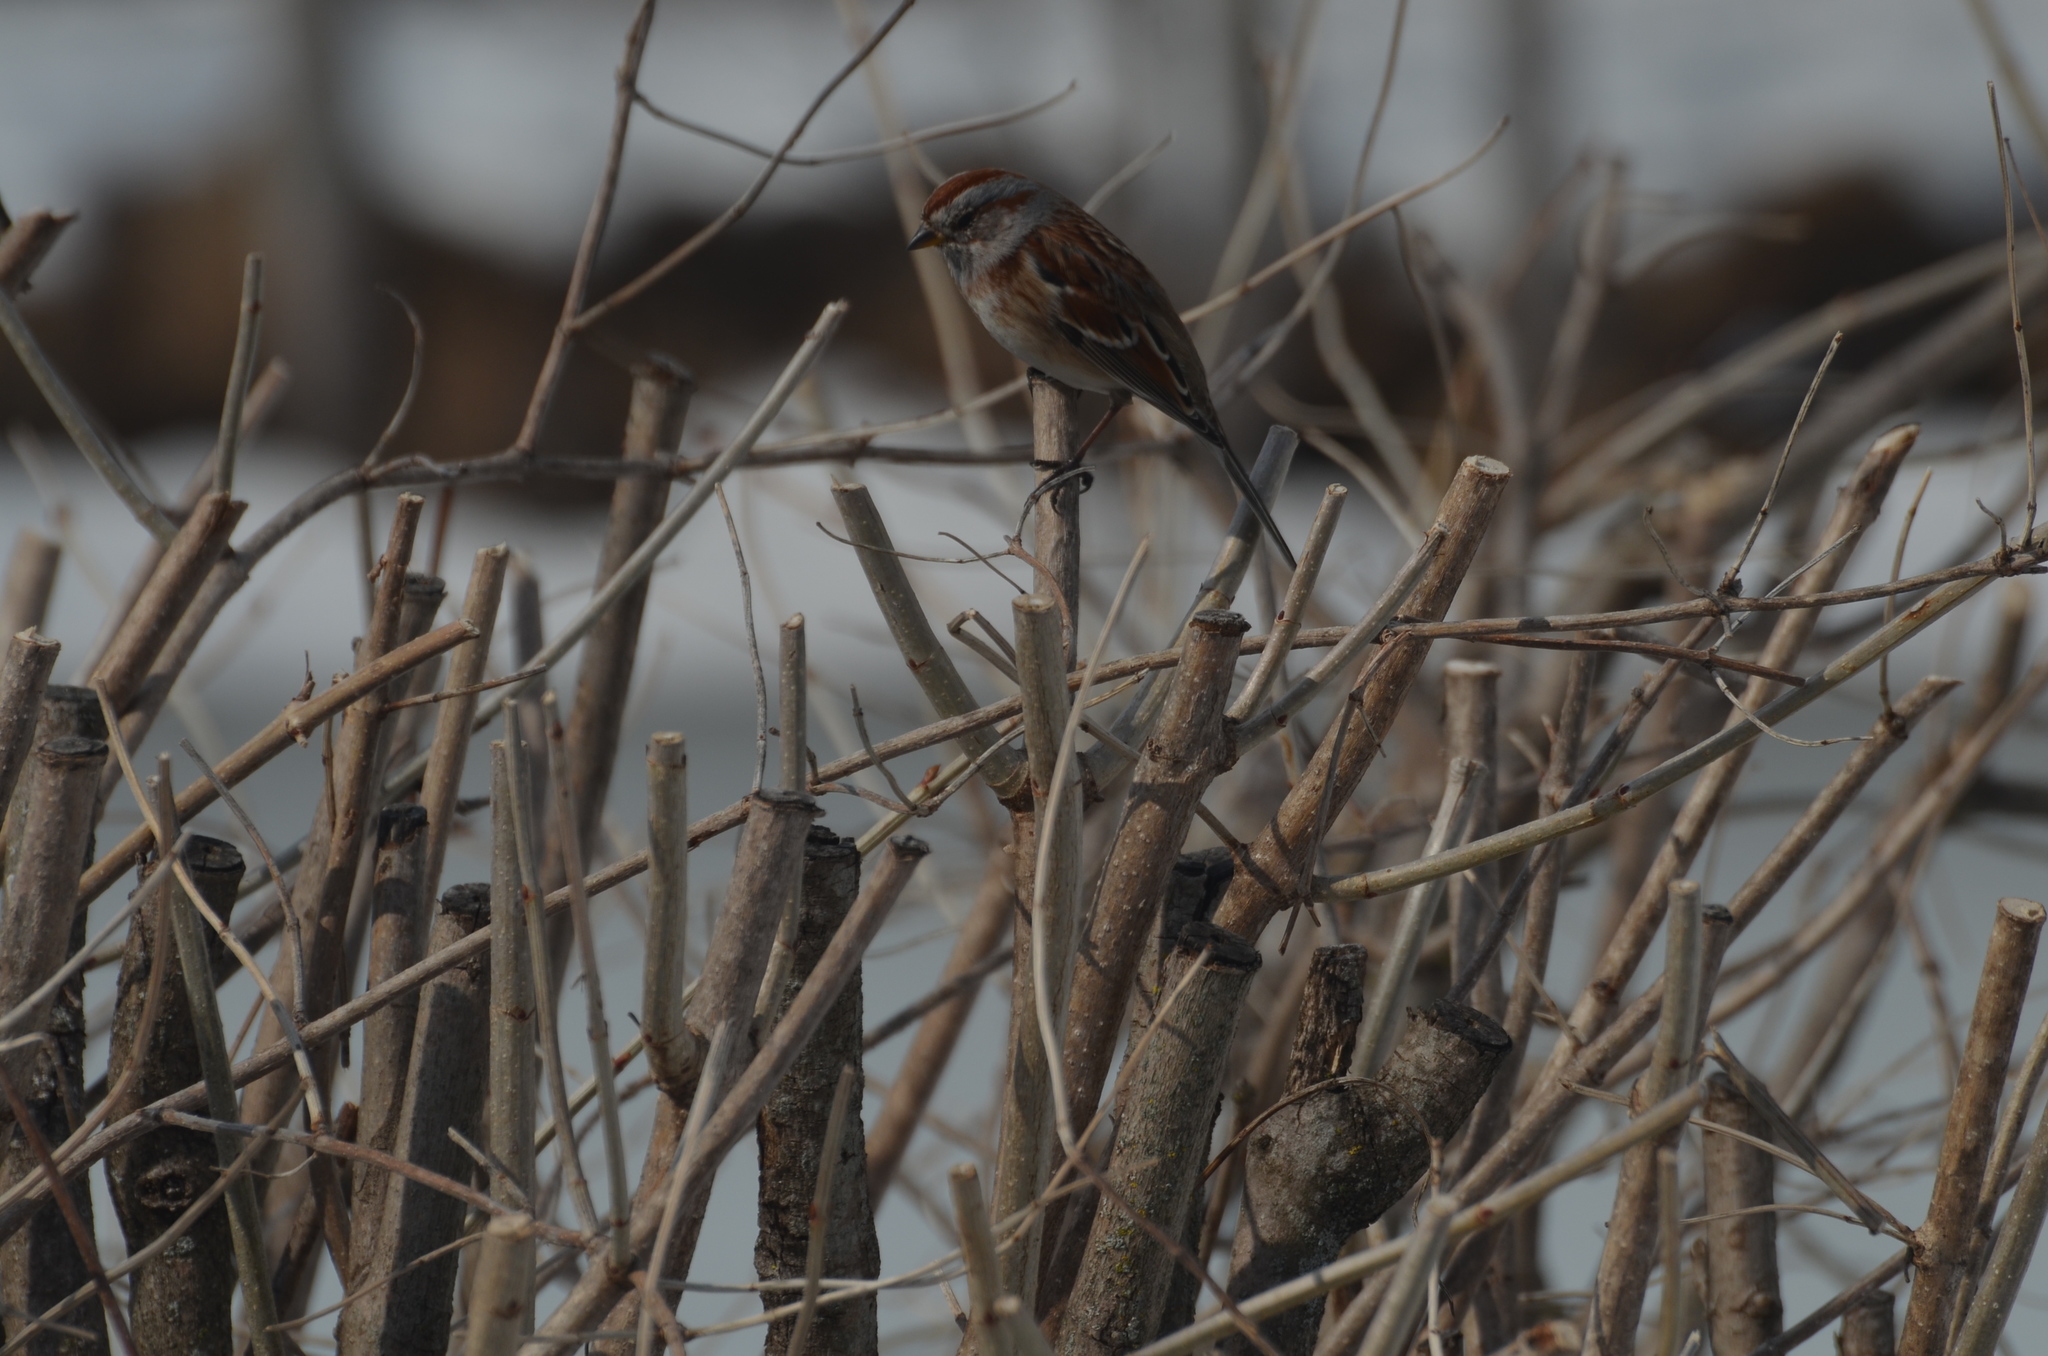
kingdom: Animalia
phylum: Chordata
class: Aves
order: Passeriformes
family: Passerellidae
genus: Spizelloides
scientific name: Spizelloides arborea
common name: American tree sparrow
